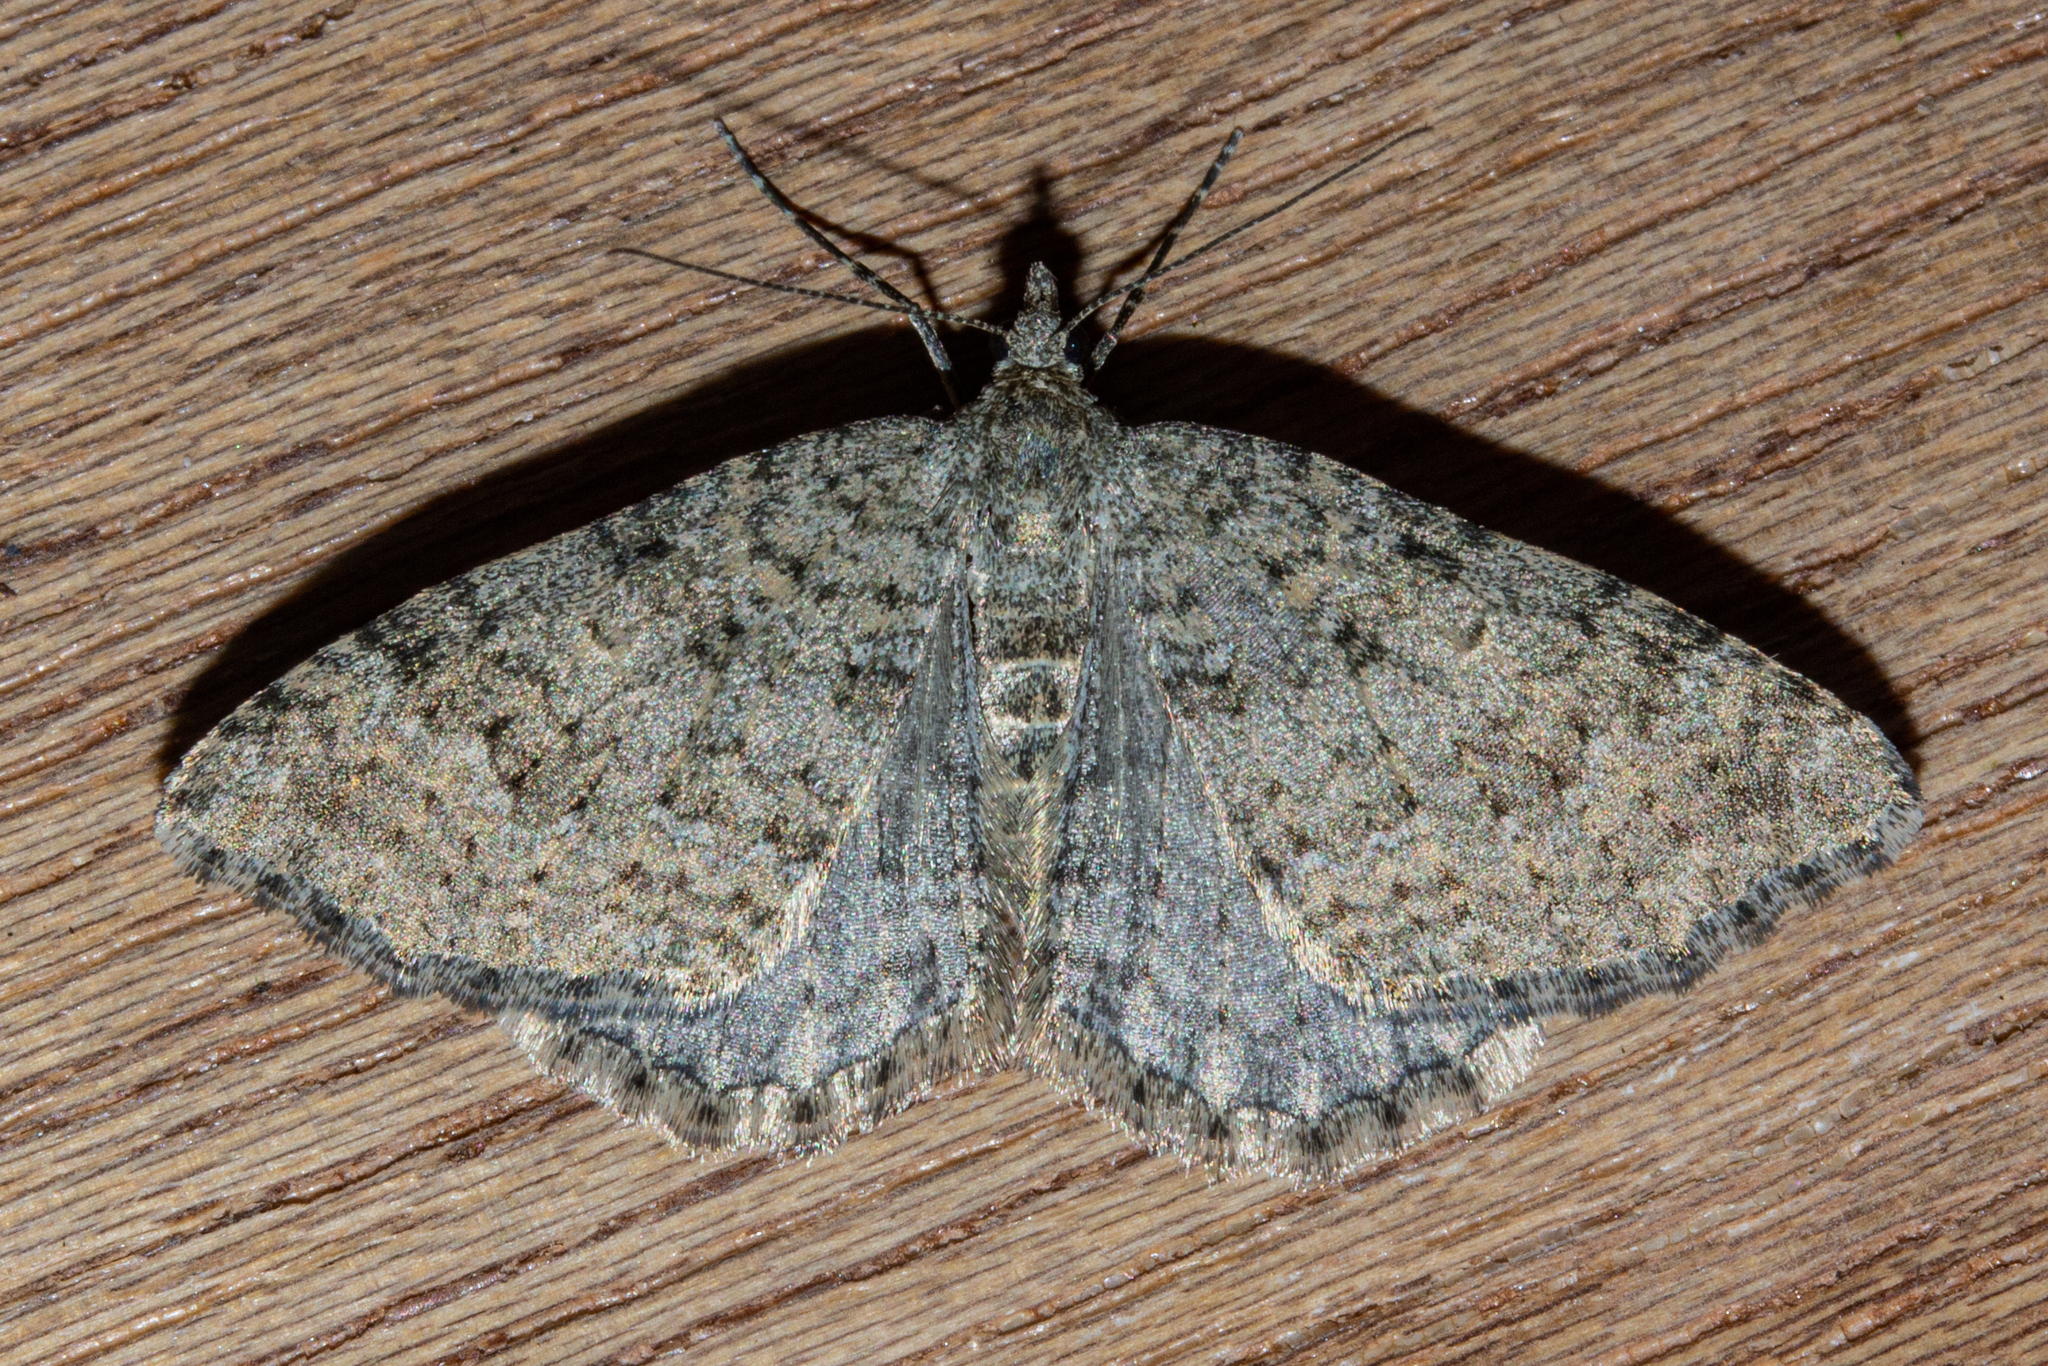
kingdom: Animalia
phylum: Arthropoda
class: Insecta
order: Lepidoptera
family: Geometridae
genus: Helastia
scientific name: Helastia corcularia
